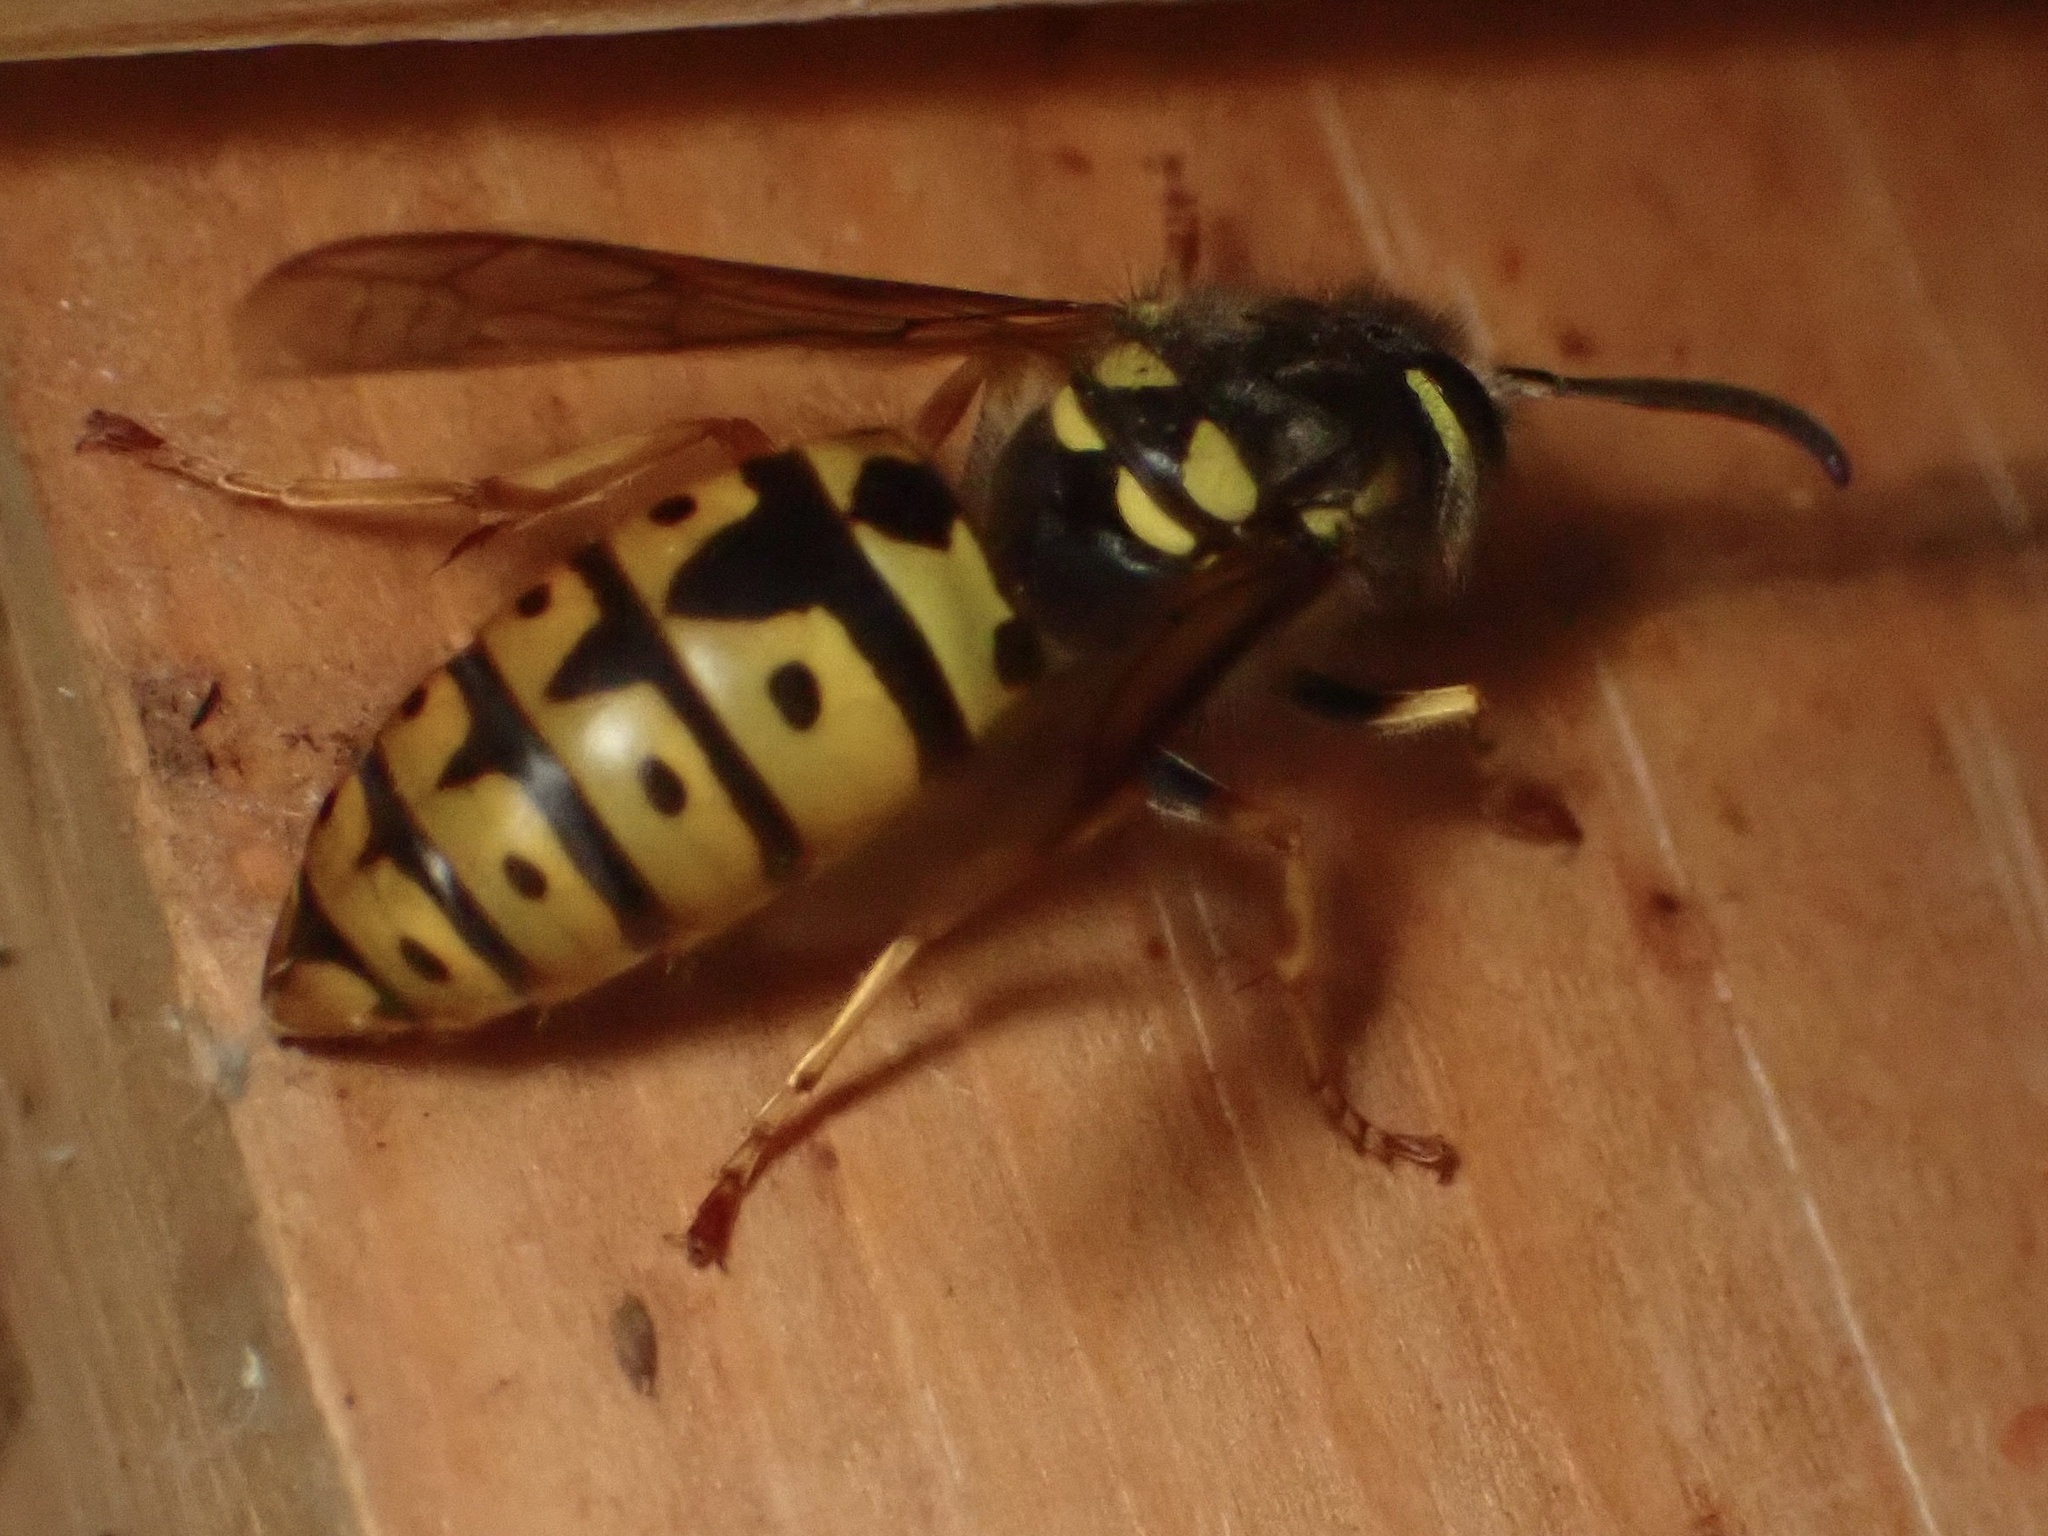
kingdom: Animalia
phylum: Arthropoda
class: Insecta
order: Hymenoptera
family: Vespidae
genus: Vespula
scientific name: Vespula pensylvanica
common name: Western yellowjacket
